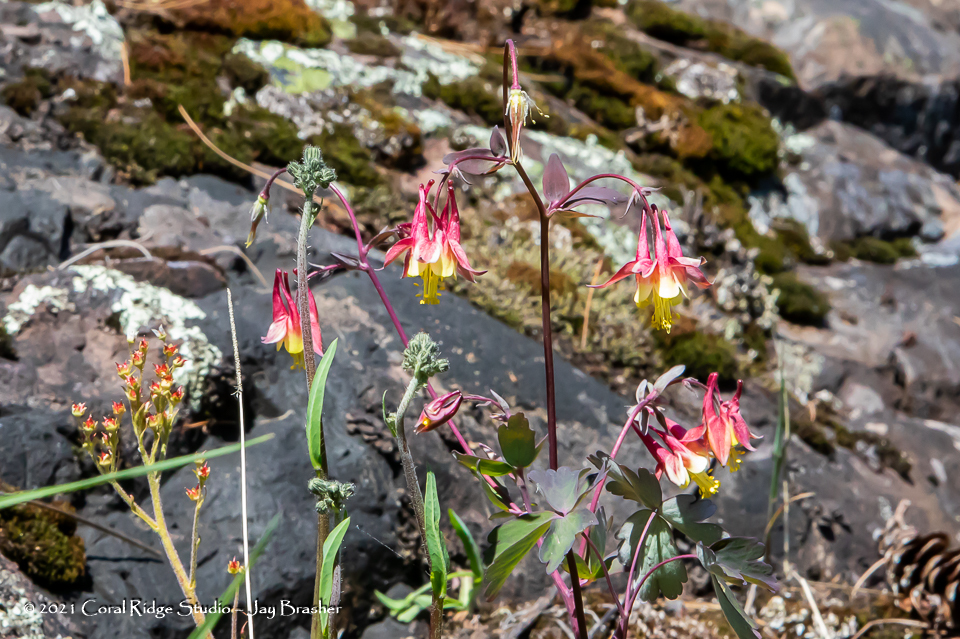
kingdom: Plantae
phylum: Tracheophyta
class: Magnoliopsida
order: Ranunculales
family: Ranunculaceae
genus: Aquilegia
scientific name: Aquilegia canadensis
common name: American columbine
